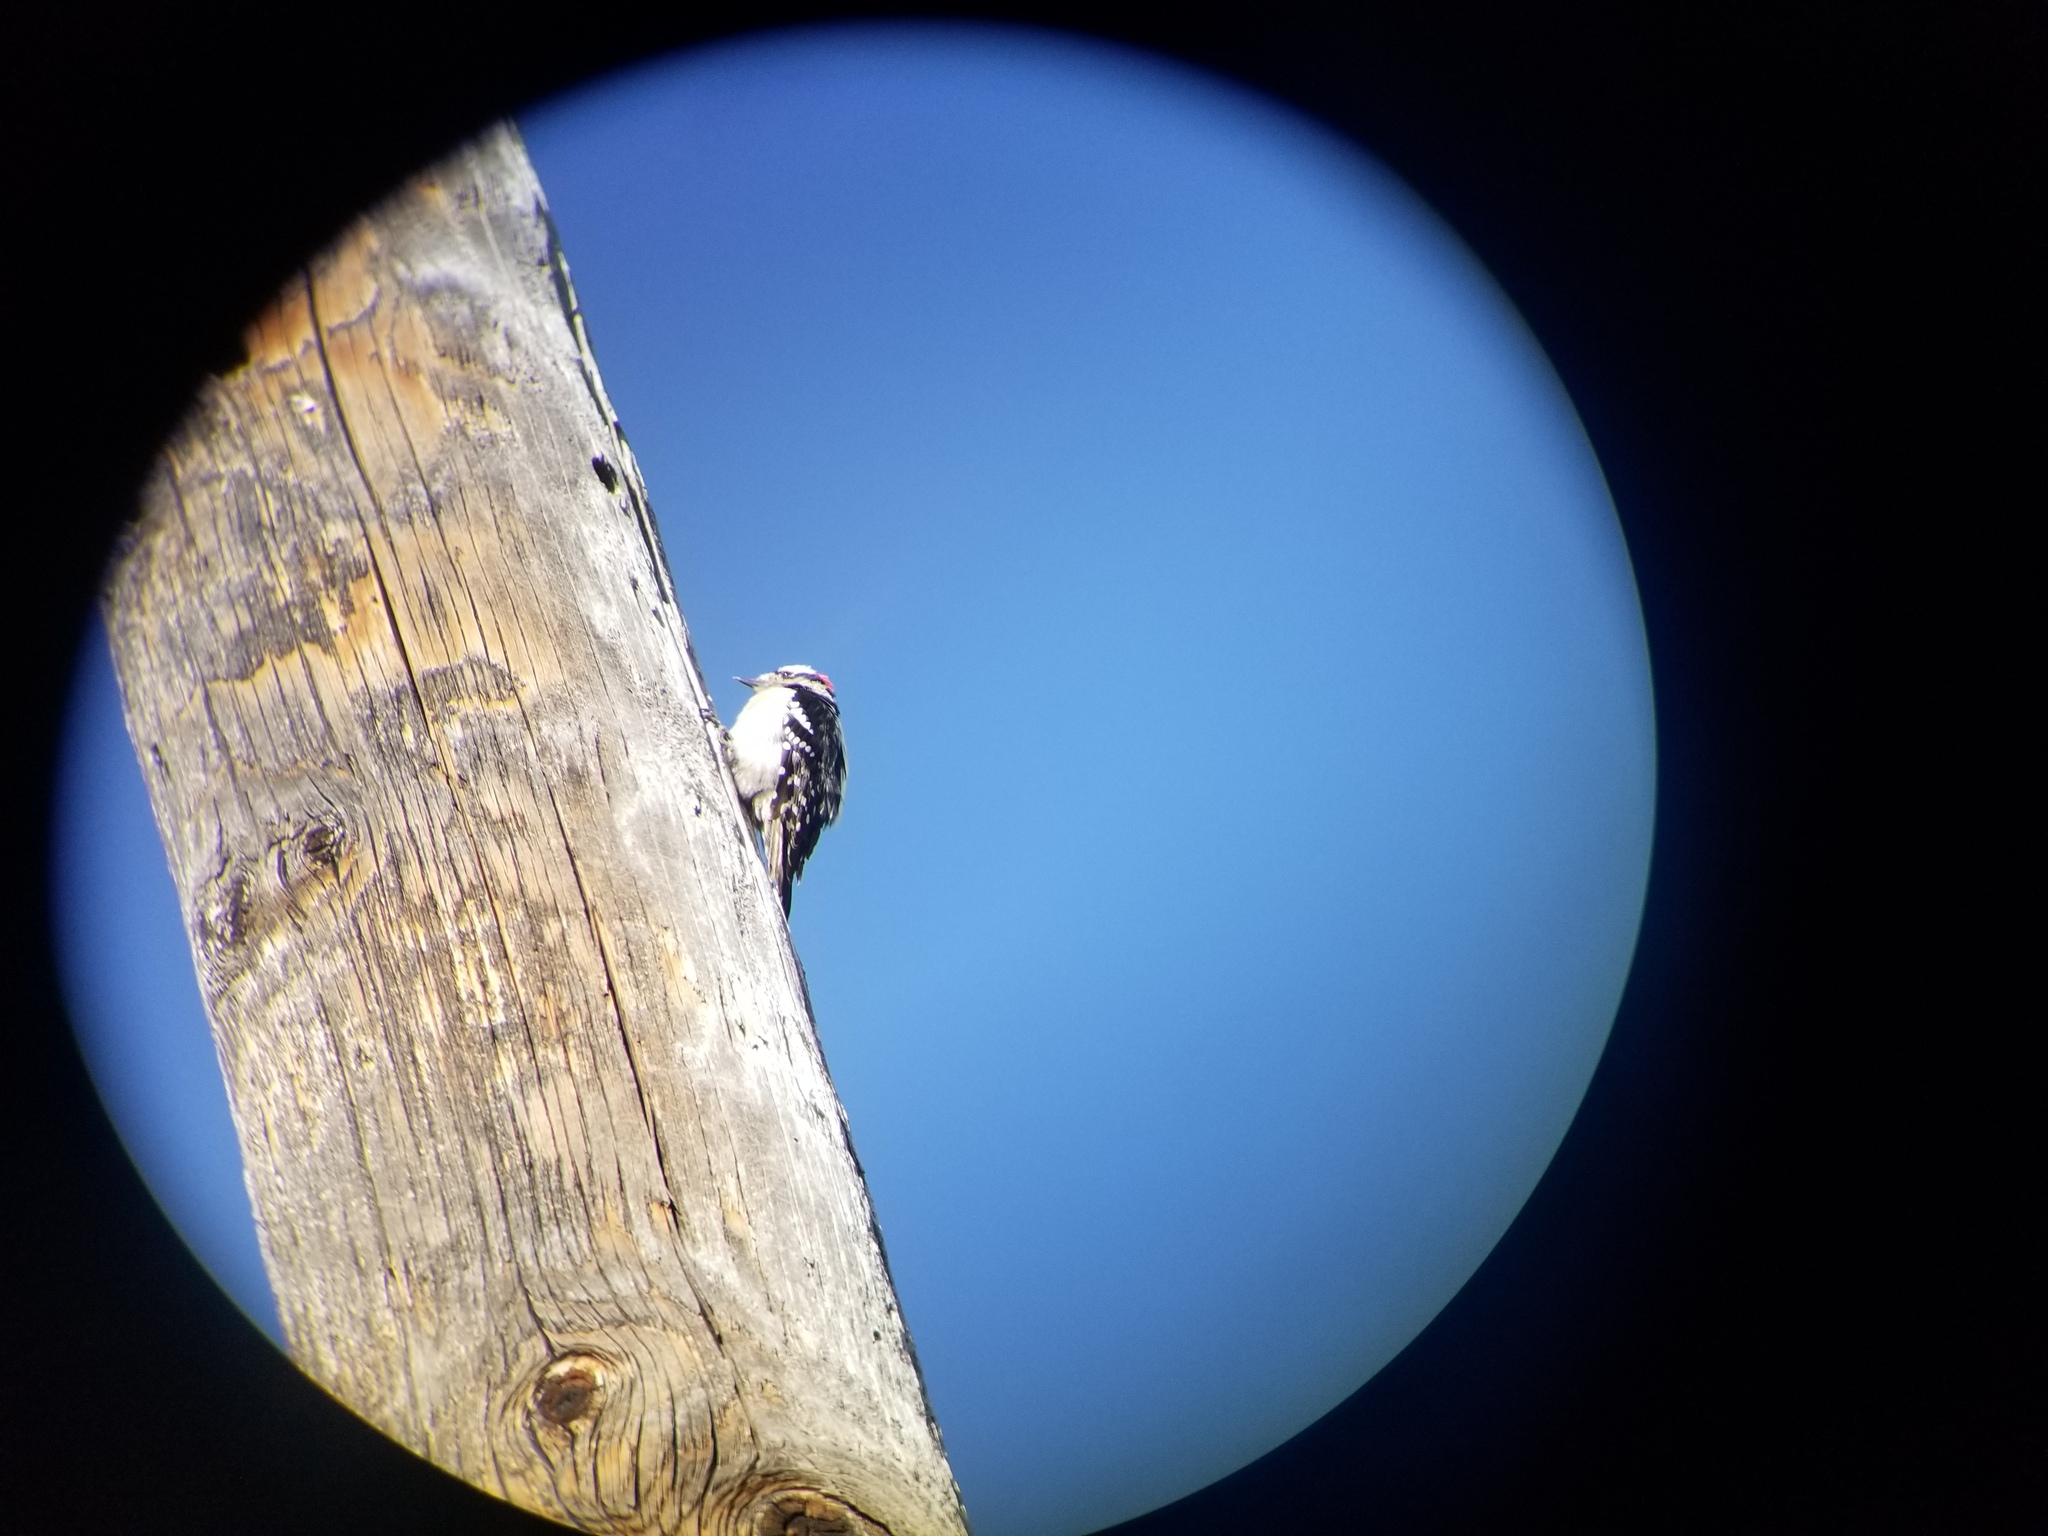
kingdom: Animalia
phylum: Chordata
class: Aves
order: Piciformes
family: Picidae
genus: Dryobates
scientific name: Dryobates pubescens
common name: Downy woodpecker
